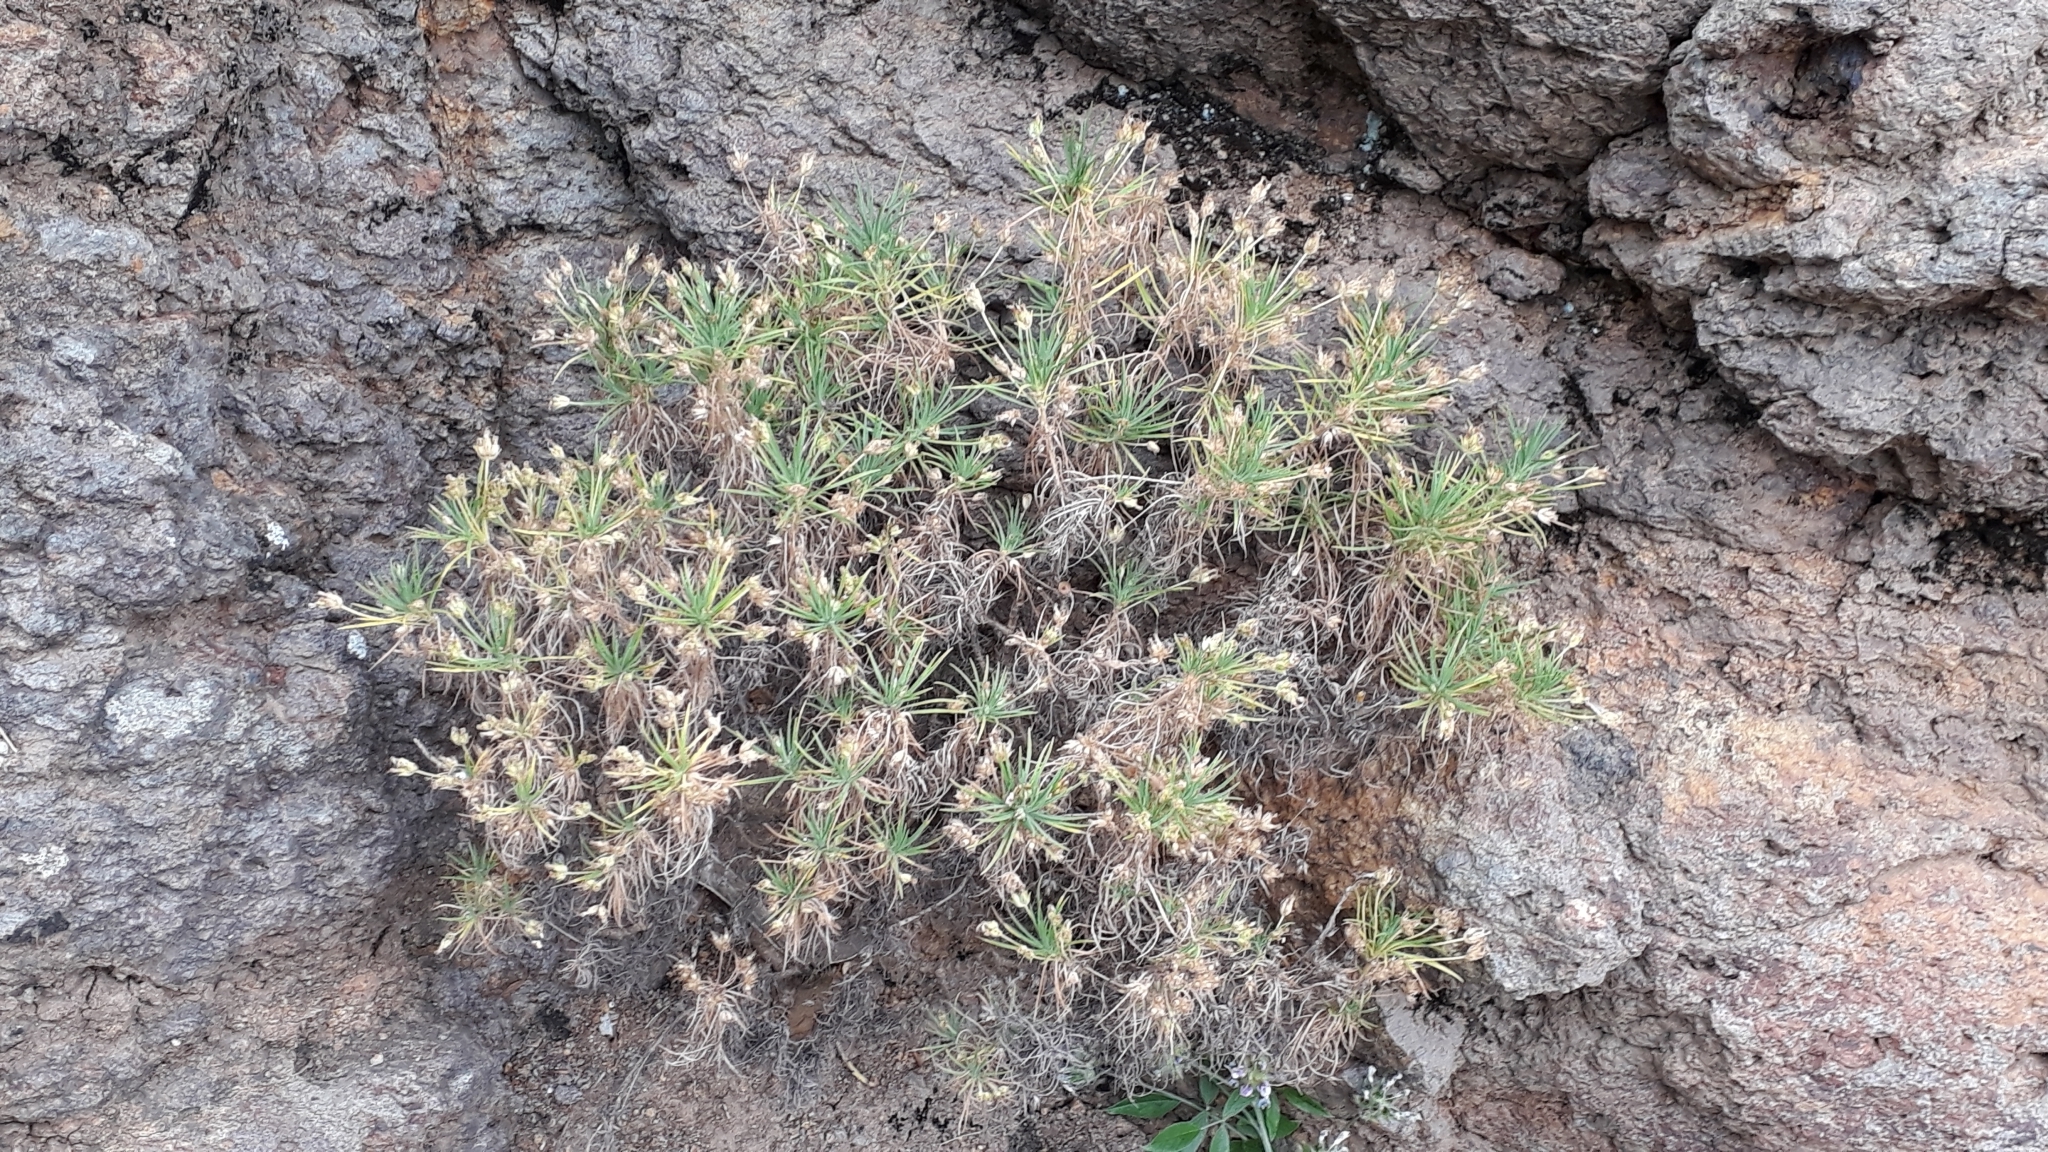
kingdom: Plantae
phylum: Tracheophyta
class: Magnoliopsida
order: Lamiales
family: Plantaginaceae
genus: Plantago
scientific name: Plantago arborescens
